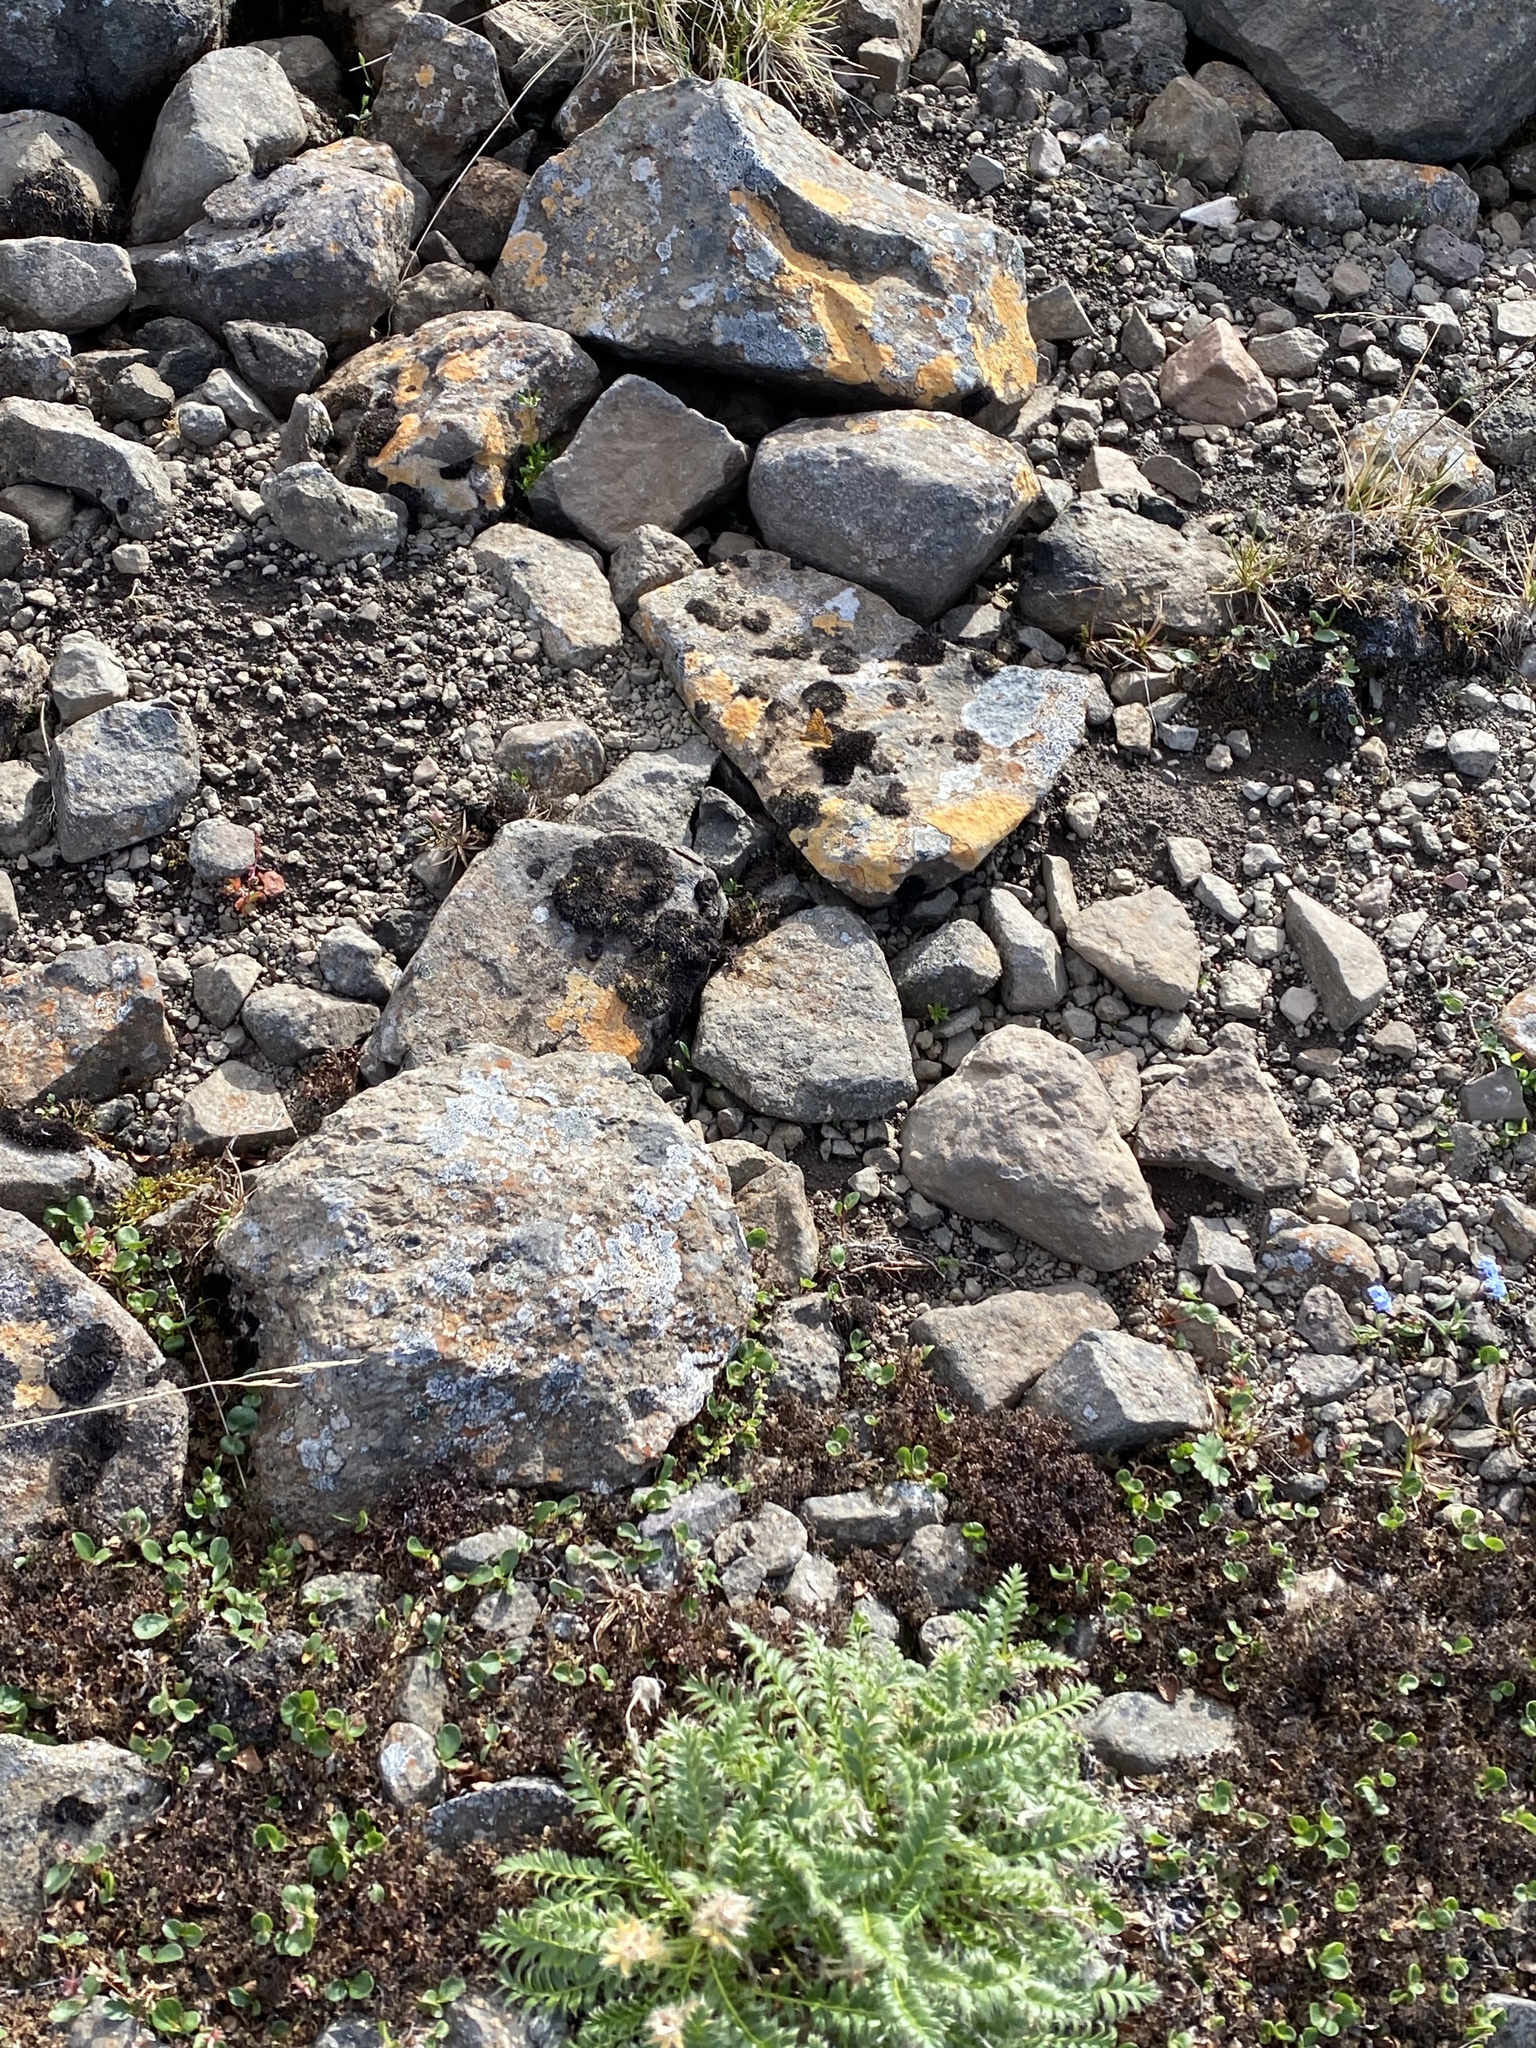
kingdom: Plantae
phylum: Tracheophyta
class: Magnoliopsida
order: Rosales
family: Rosaceae
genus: Geum
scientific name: Geum glaciale
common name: Glacier avens
